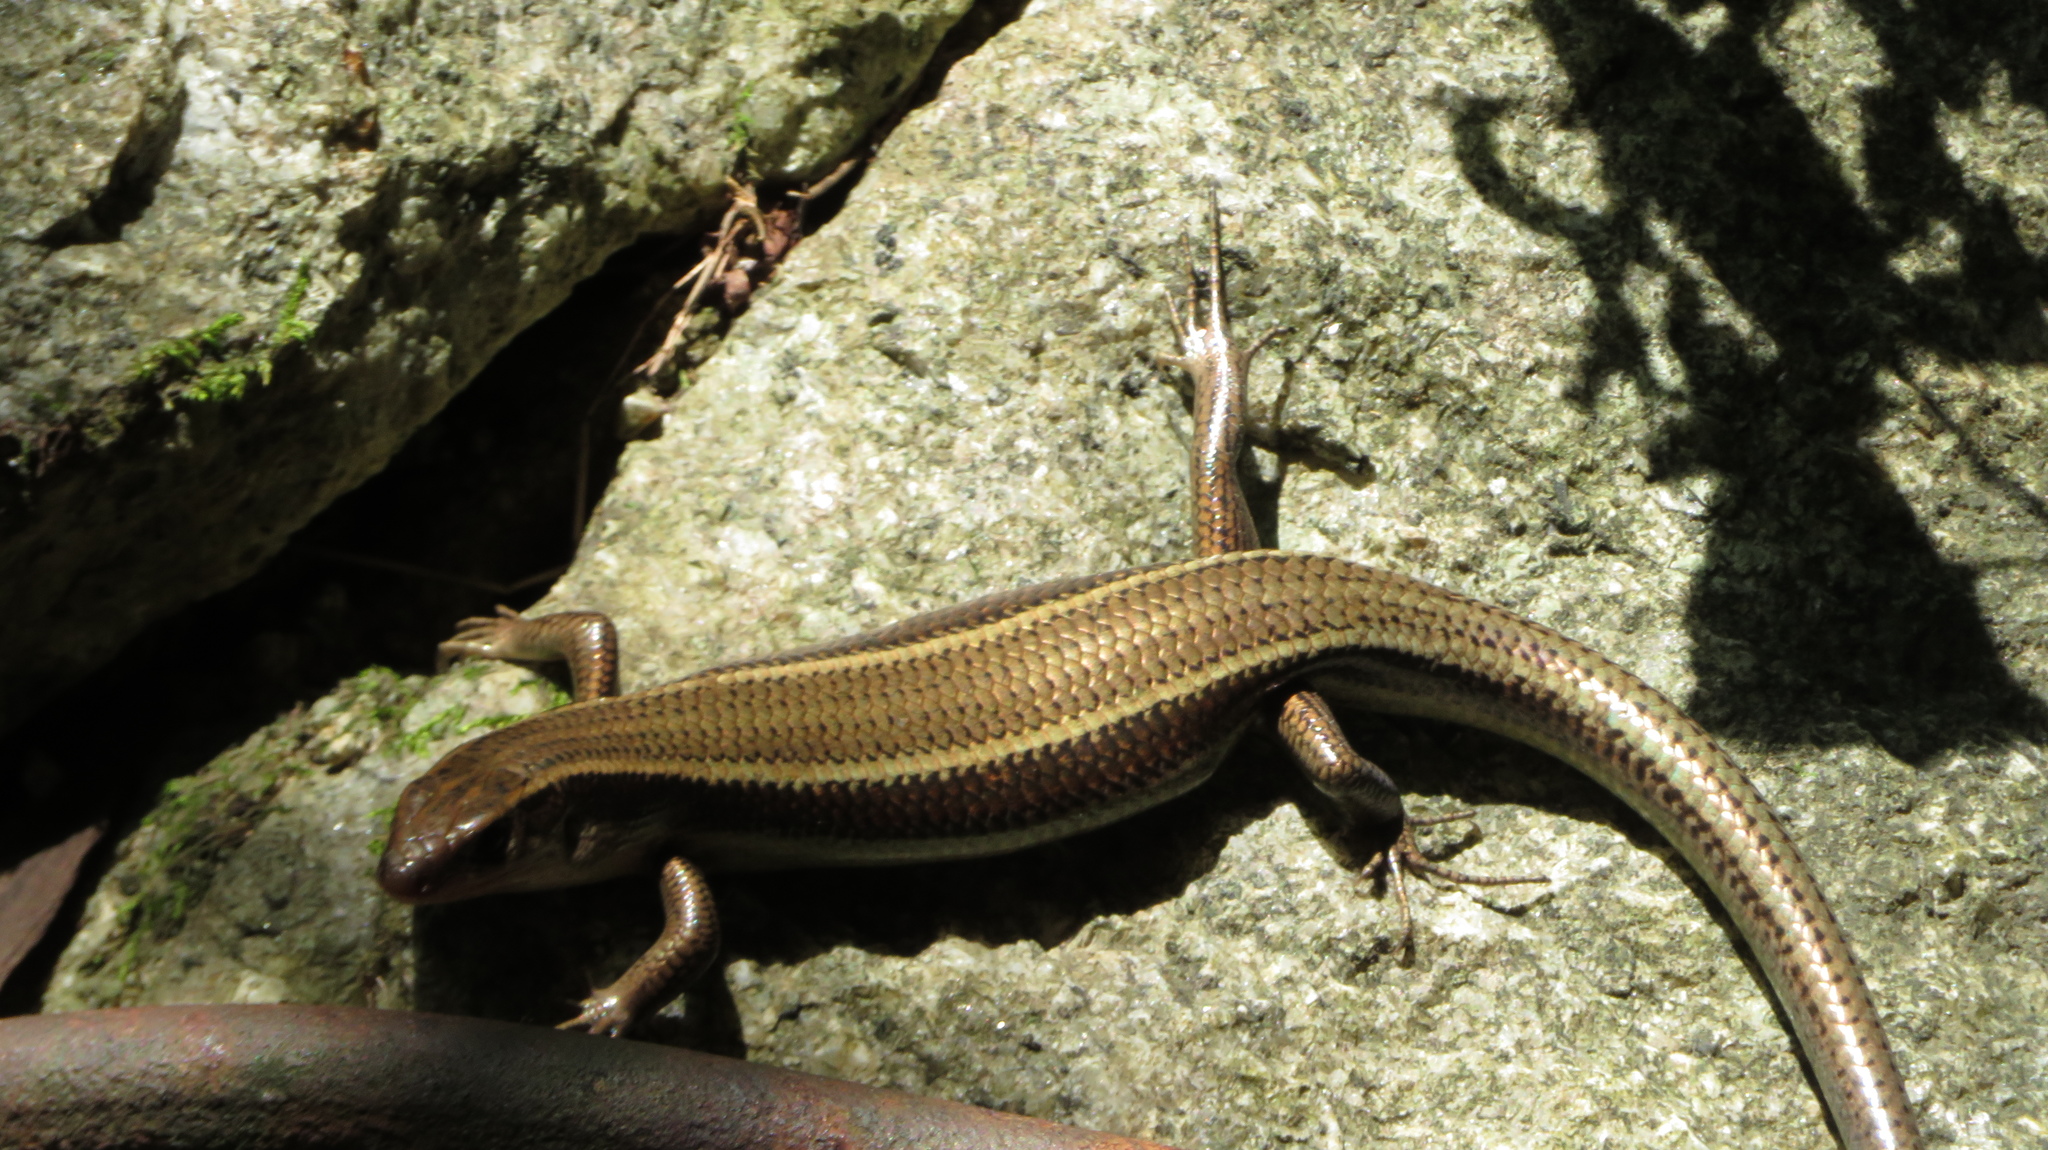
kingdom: Animalia
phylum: Chordata
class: Squamata
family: Scincidae
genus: Plestiodon
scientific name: Plestiodon japonicus
